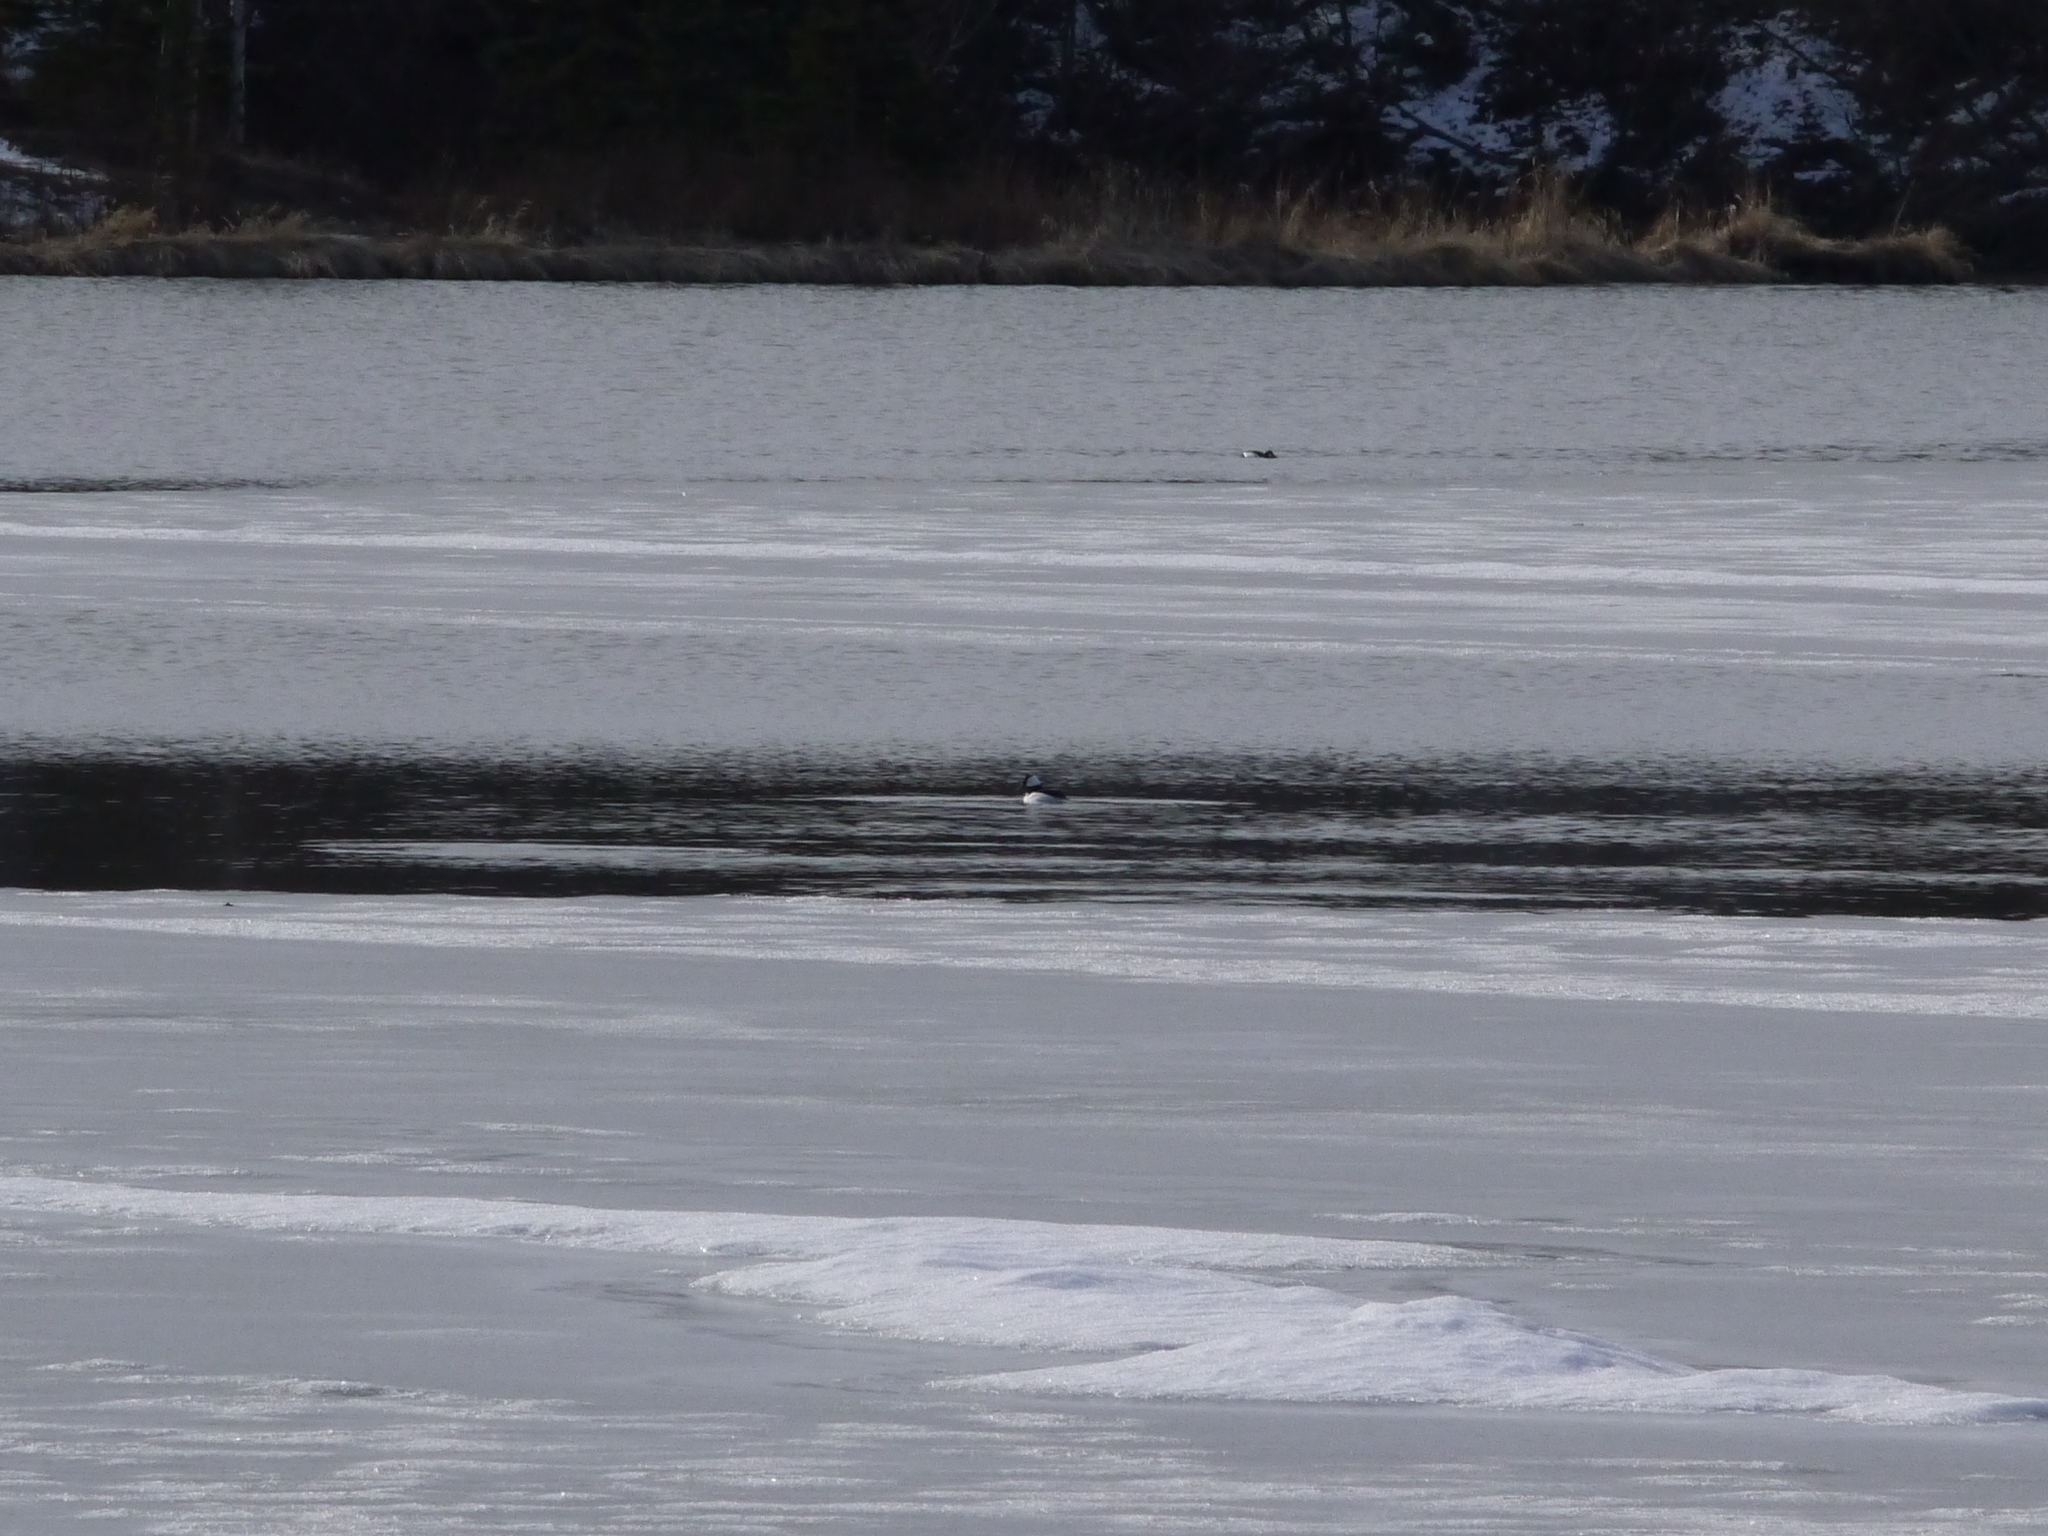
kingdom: Animalia
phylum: Chordata
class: Aves
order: Anseriformes
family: Anatidae
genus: Bucephala
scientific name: Bucephala albeola
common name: Bufflehead
